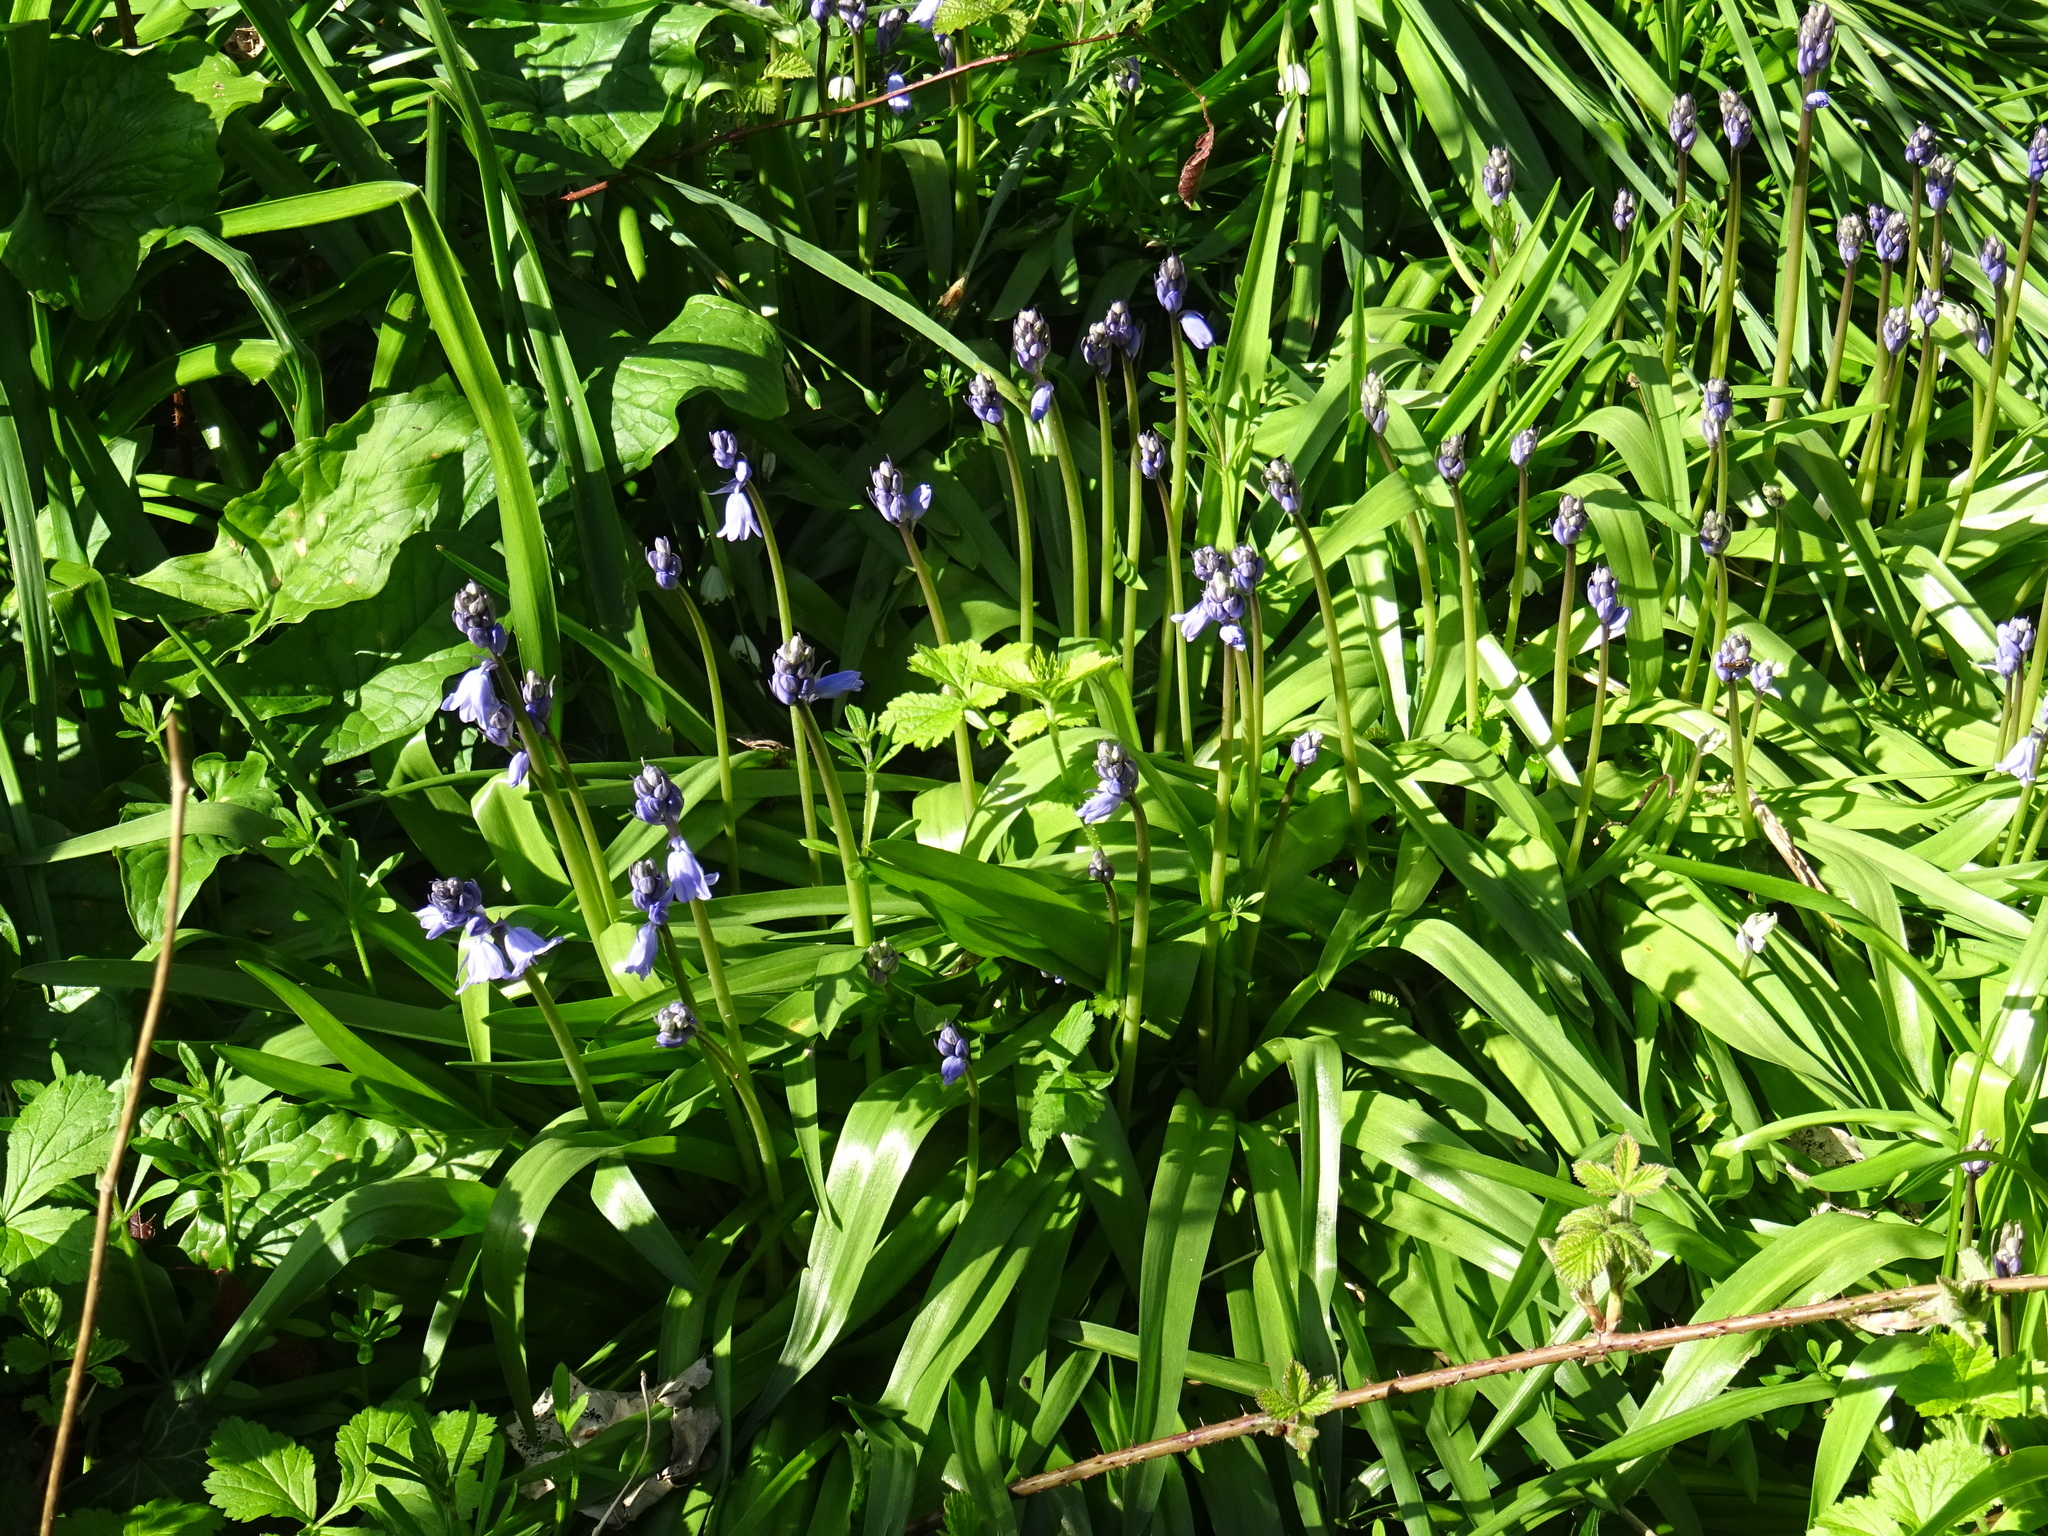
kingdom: Plantae
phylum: Tracheophyta
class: Liliopsida
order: Asparagales
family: Asparagaceae
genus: Hyacinthoides
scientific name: Hyacinthoides non-scripta
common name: Bluebell
